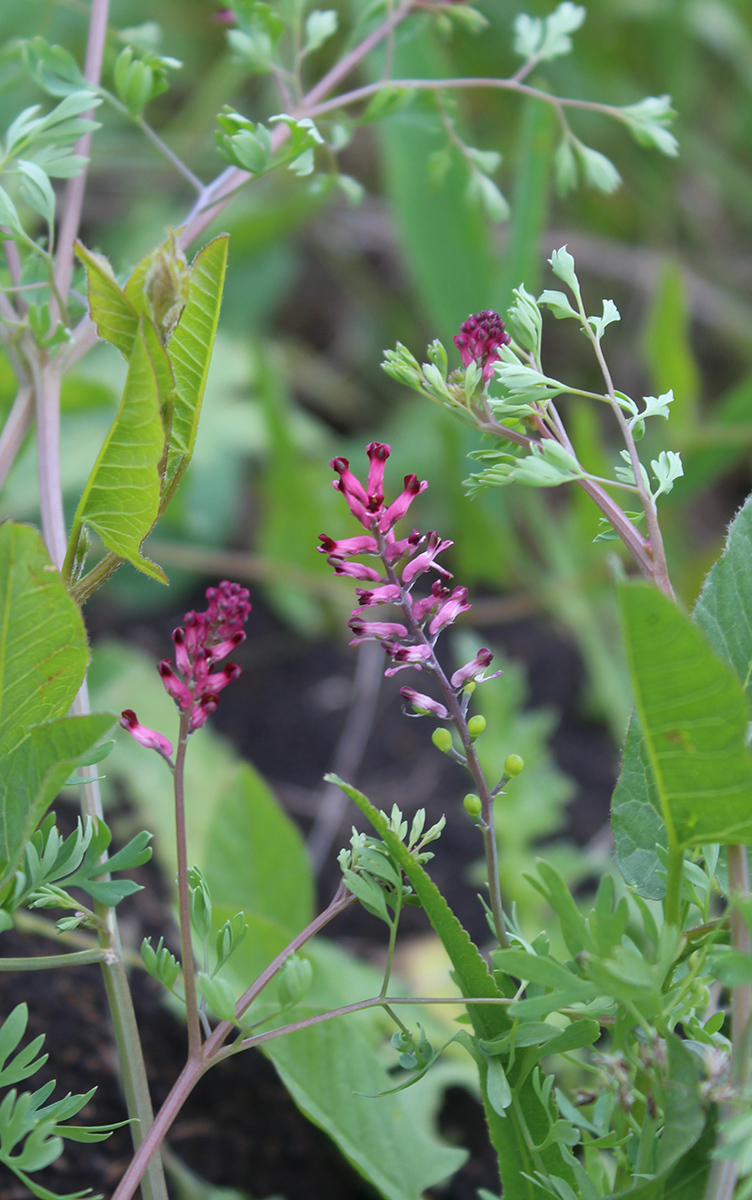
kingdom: Plantae
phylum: Tracheophyta
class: Magnoliopsida
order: Ranunculales
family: Papaveraceae
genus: Fumaria
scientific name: Fumaria schleicheri
